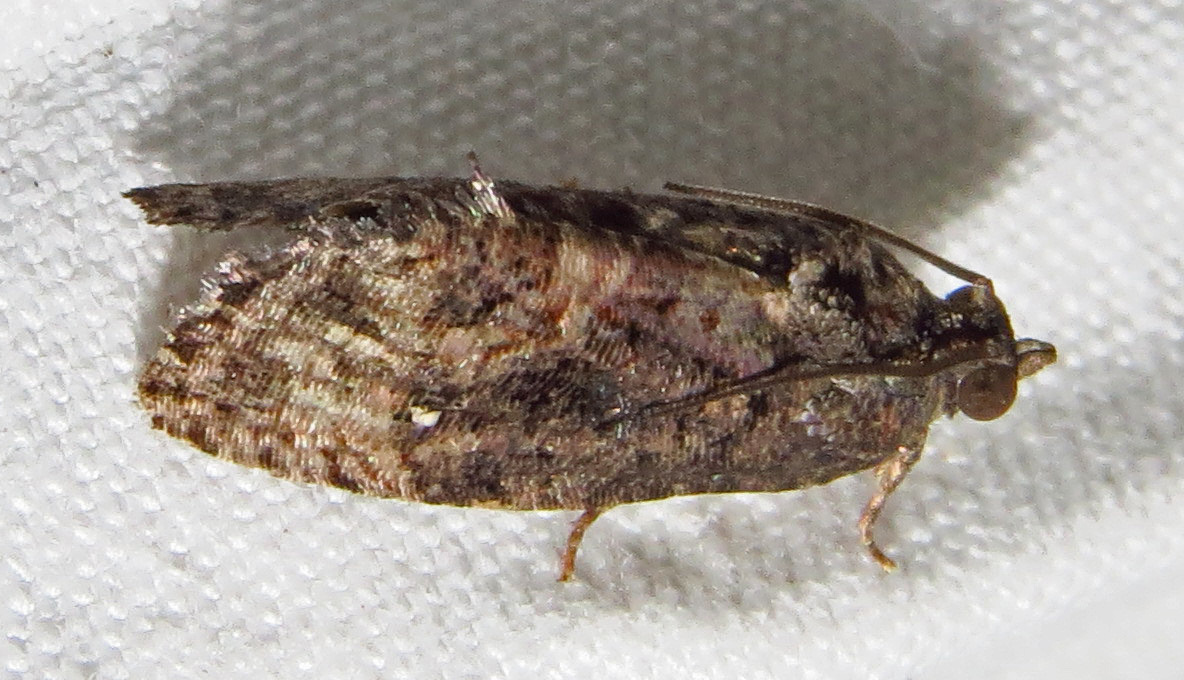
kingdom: Animalia
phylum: Arthropoda
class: Insecta
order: Lepidoptera
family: Tortricidae
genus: Gymnandrosoma
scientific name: Gymnandrosoma punctidiscanum
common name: Dotted ecdytolopha moth
